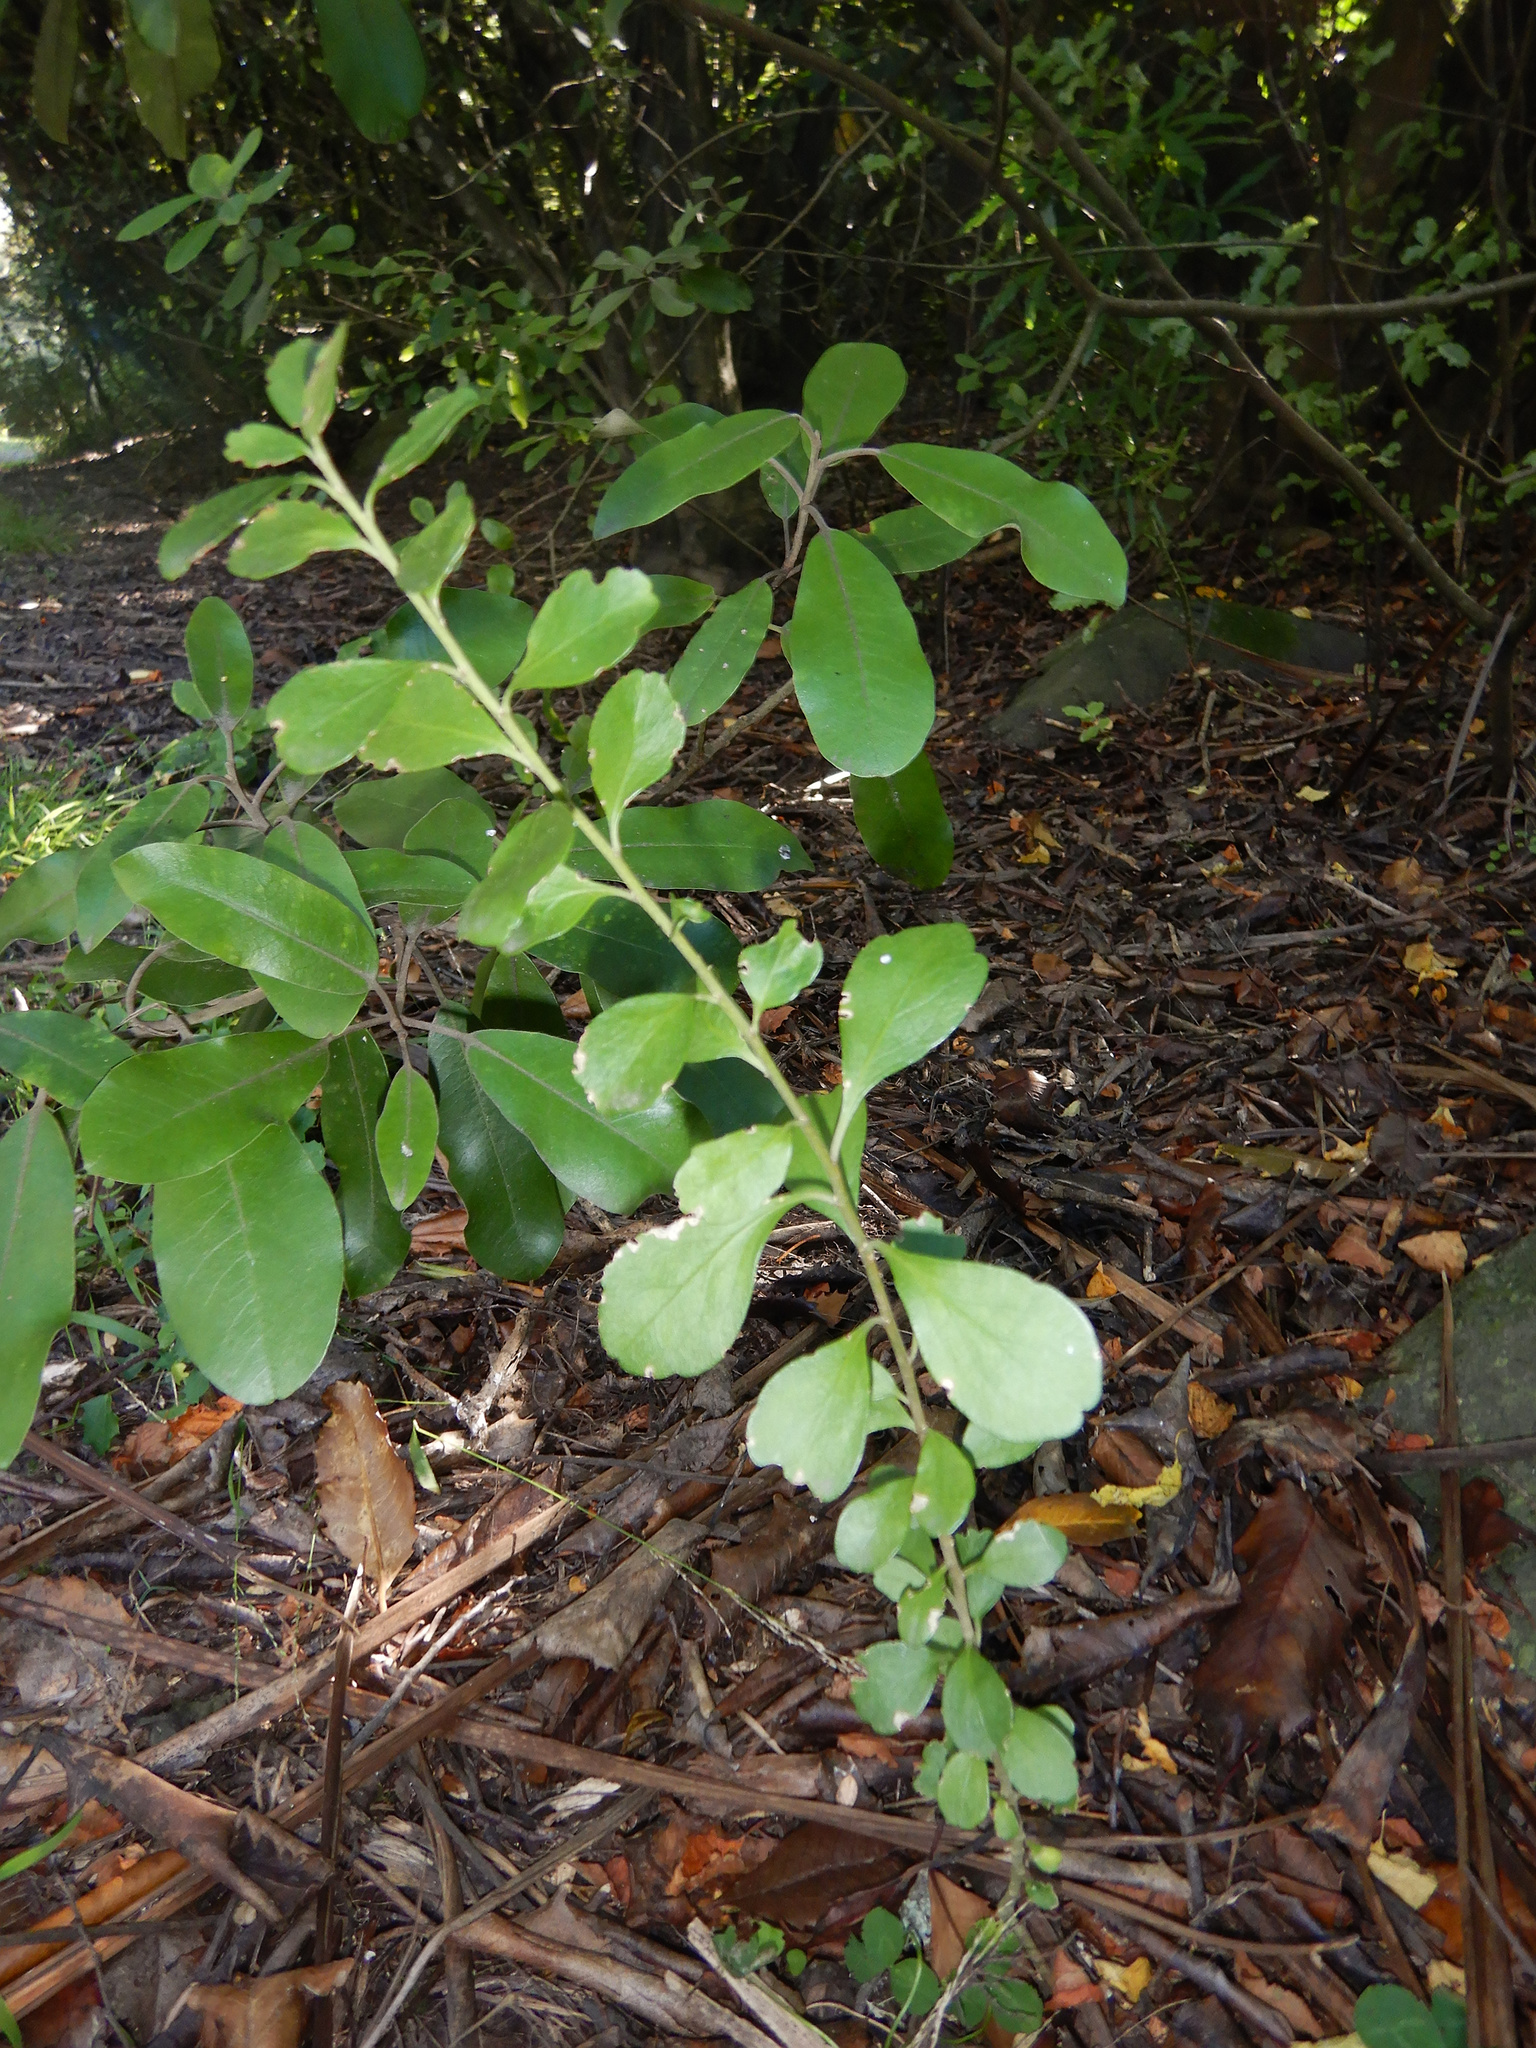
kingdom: Plantae
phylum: Tracheophyta
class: Magnoliopsida
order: Malpighiales
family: Violaceae
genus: Melicytus
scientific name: Melicytus obovatus
